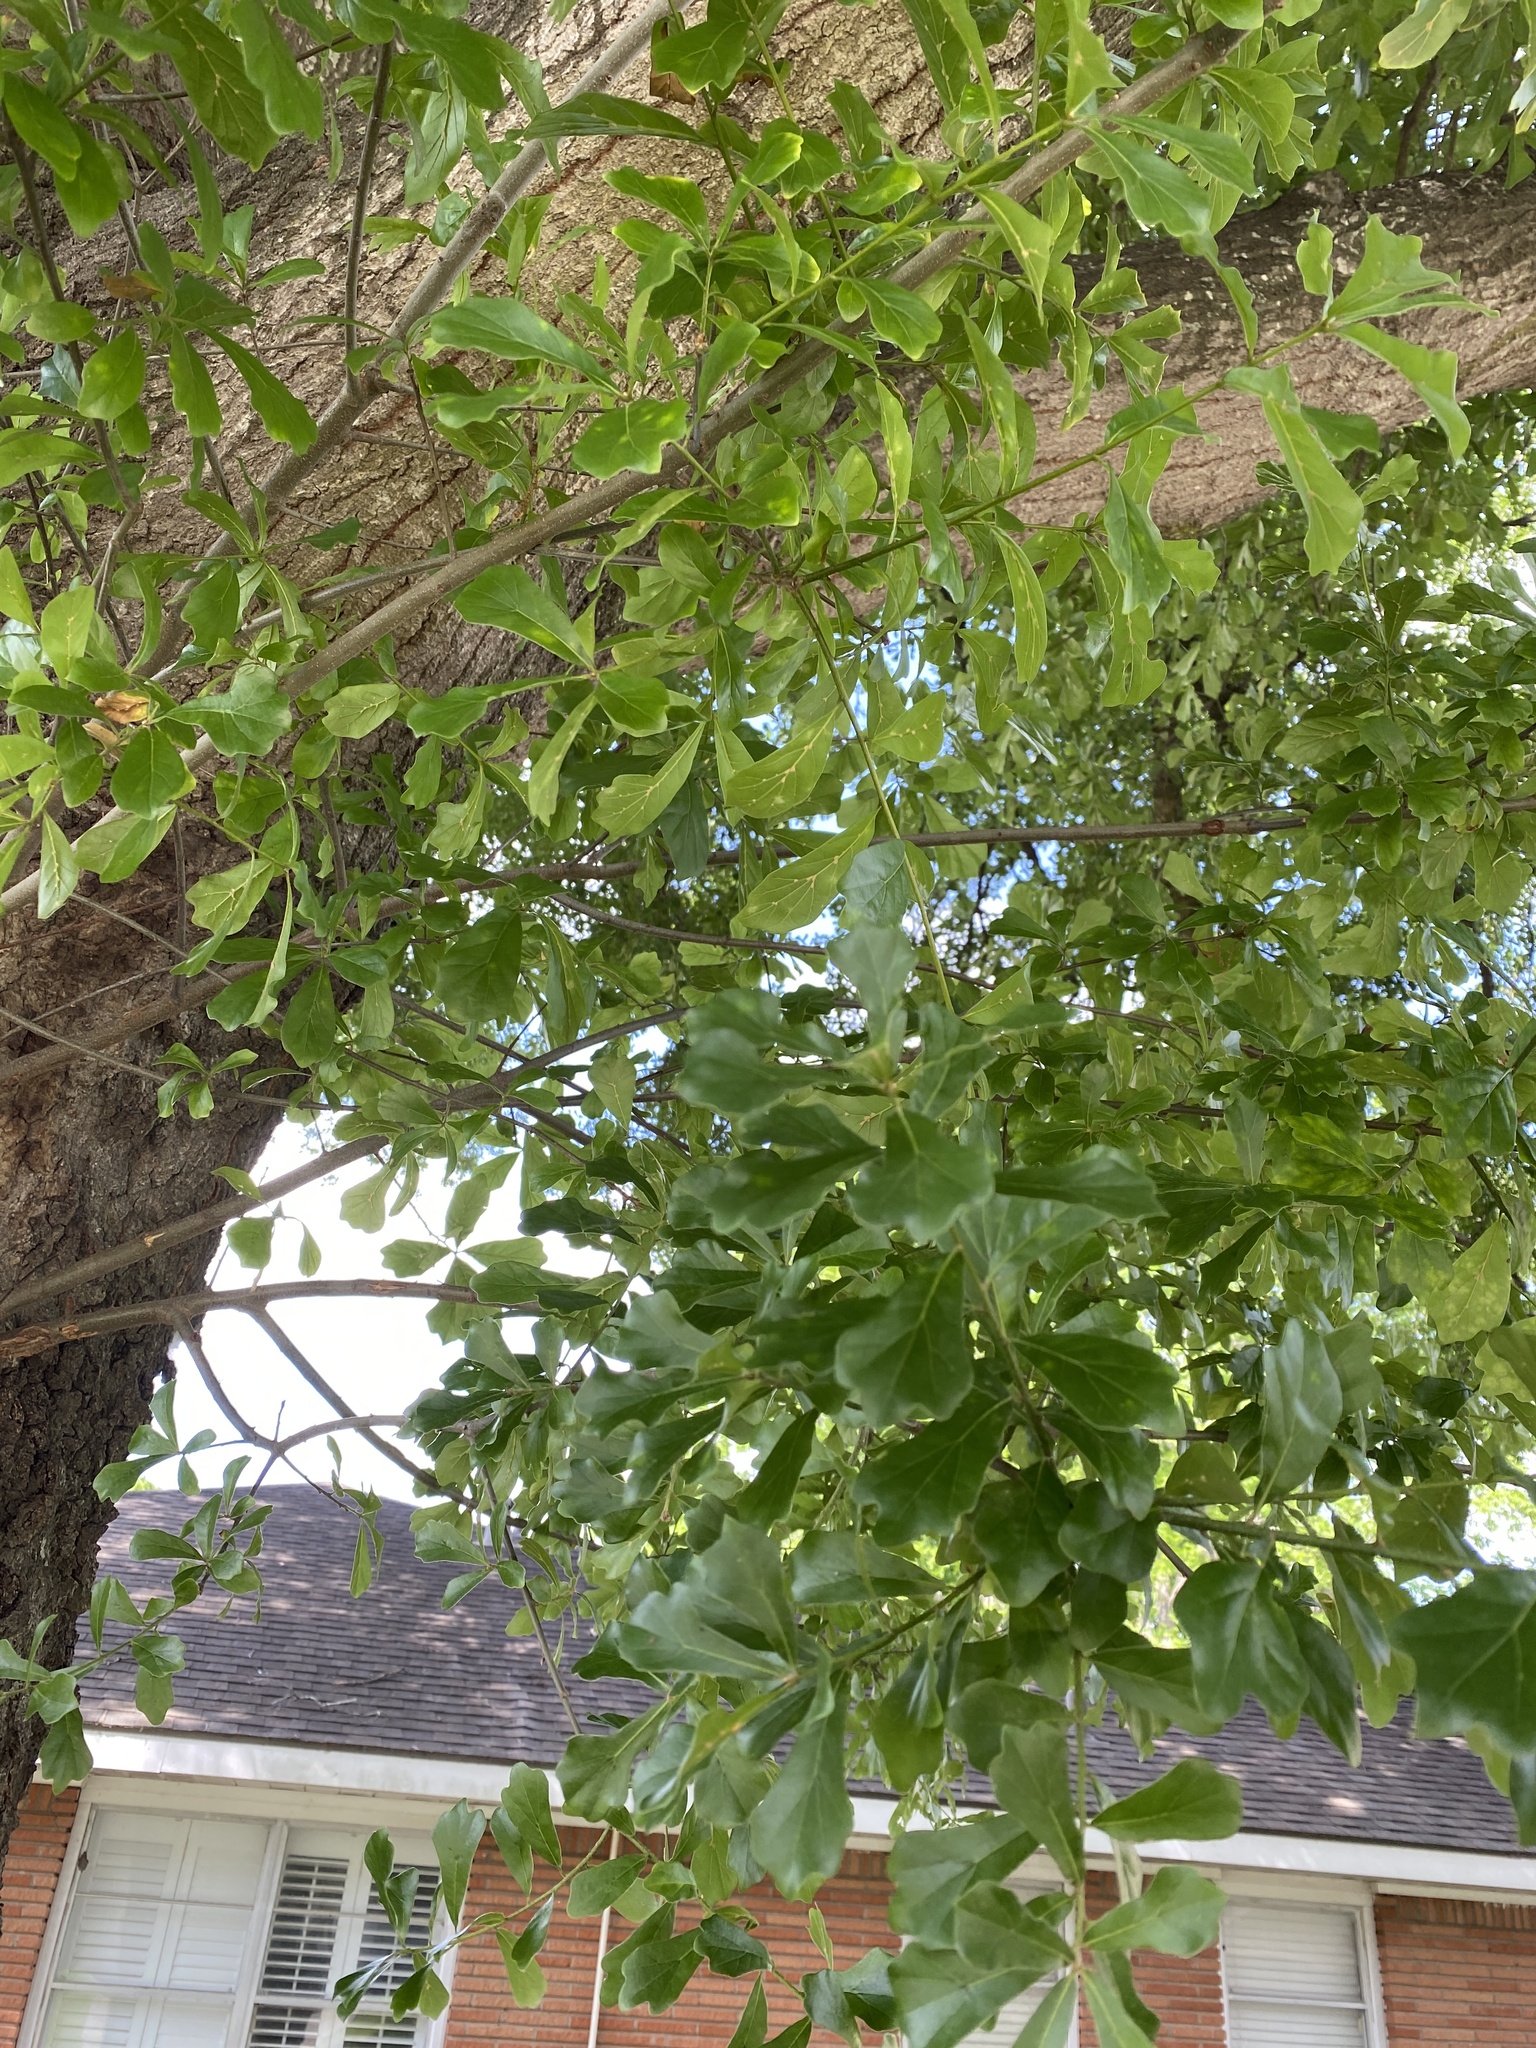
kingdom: Plantae
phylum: Tracheophyta
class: Magnoliopsida
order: Fagales
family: Fagaceae
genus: Quercus
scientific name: Quercus nigra
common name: Water oak
